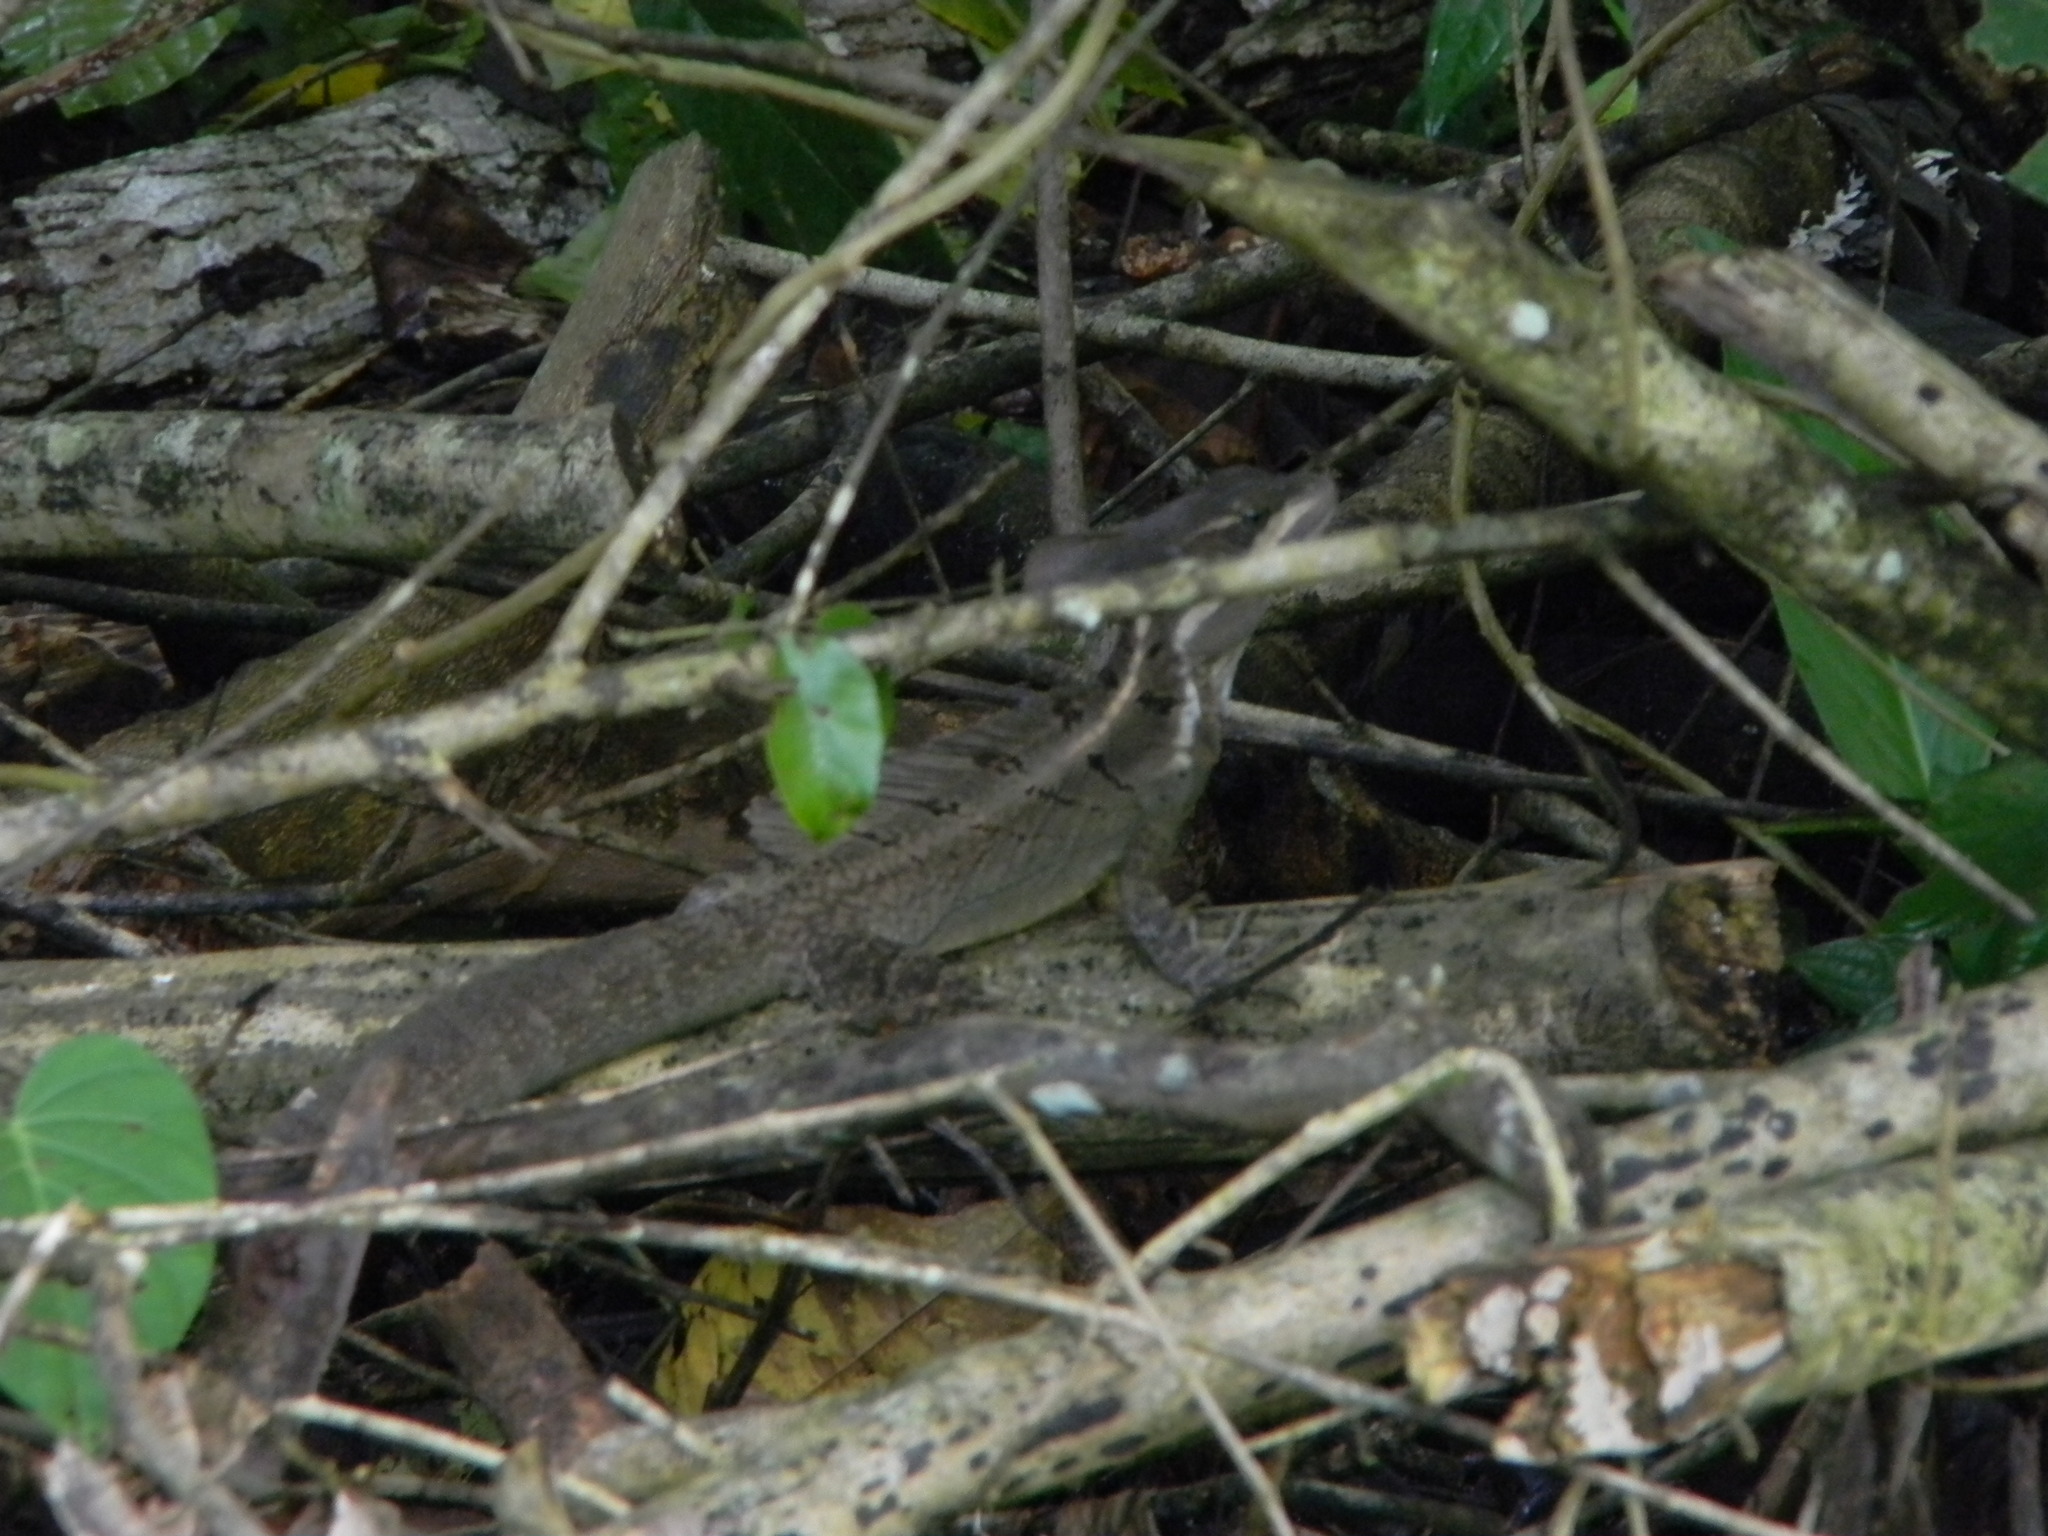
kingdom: Animalia
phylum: Chordata
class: Squamata
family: Corytophanidae
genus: Basiliscus
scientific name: Basiliscus basiliscus
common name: Common basilisk
